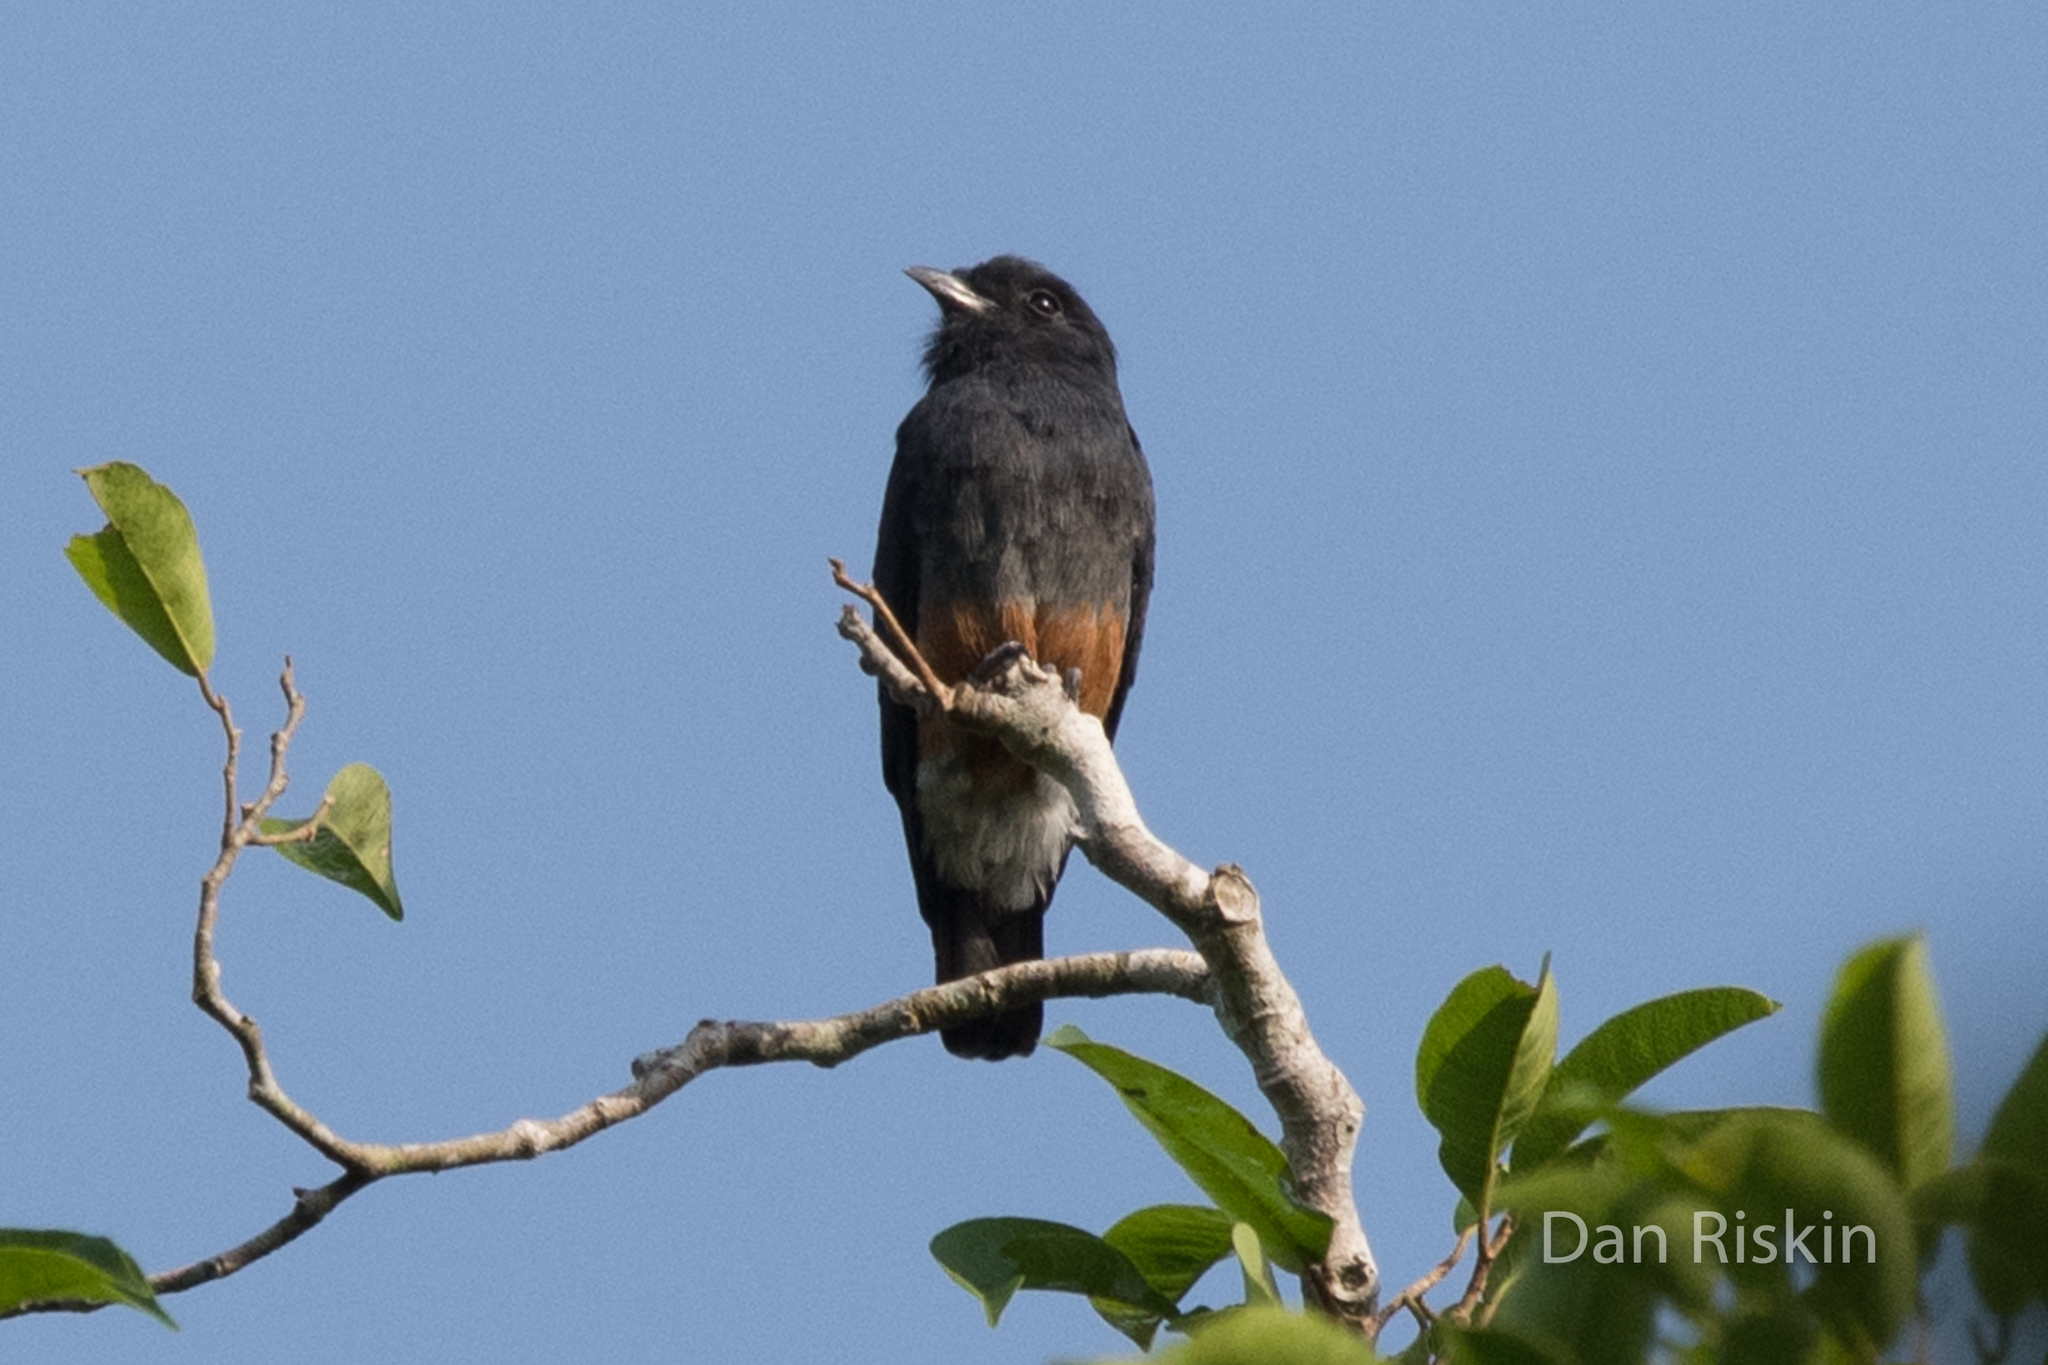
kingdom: Animalia
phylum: Chordata
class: Aves
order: Piciformes
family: Bucconidae
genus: Chelidoptera
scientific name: Chelidoptera tenebrosa
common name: Swallow-winged puffbird
